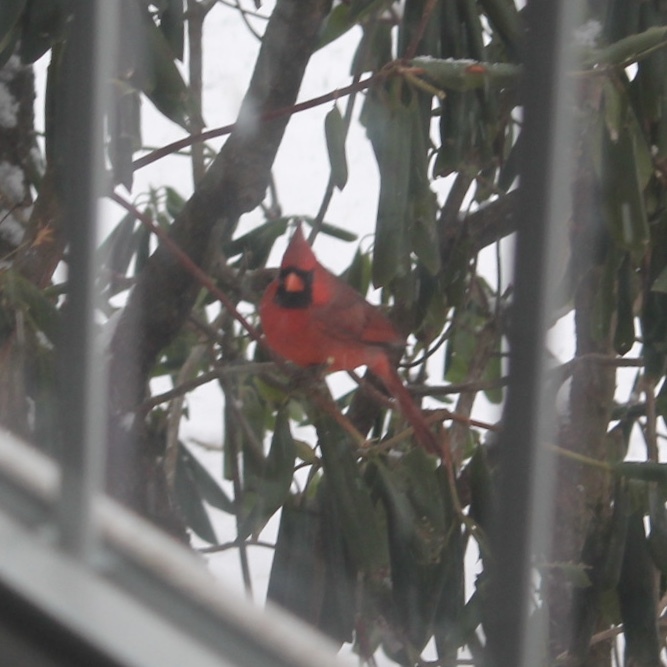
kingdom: Animalia
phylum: Chordata
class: Aves
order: Passeriformes
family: Cardinalidae
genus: Cardinalis
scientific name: Cardinalis cardinalis
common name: Northern cardinal
